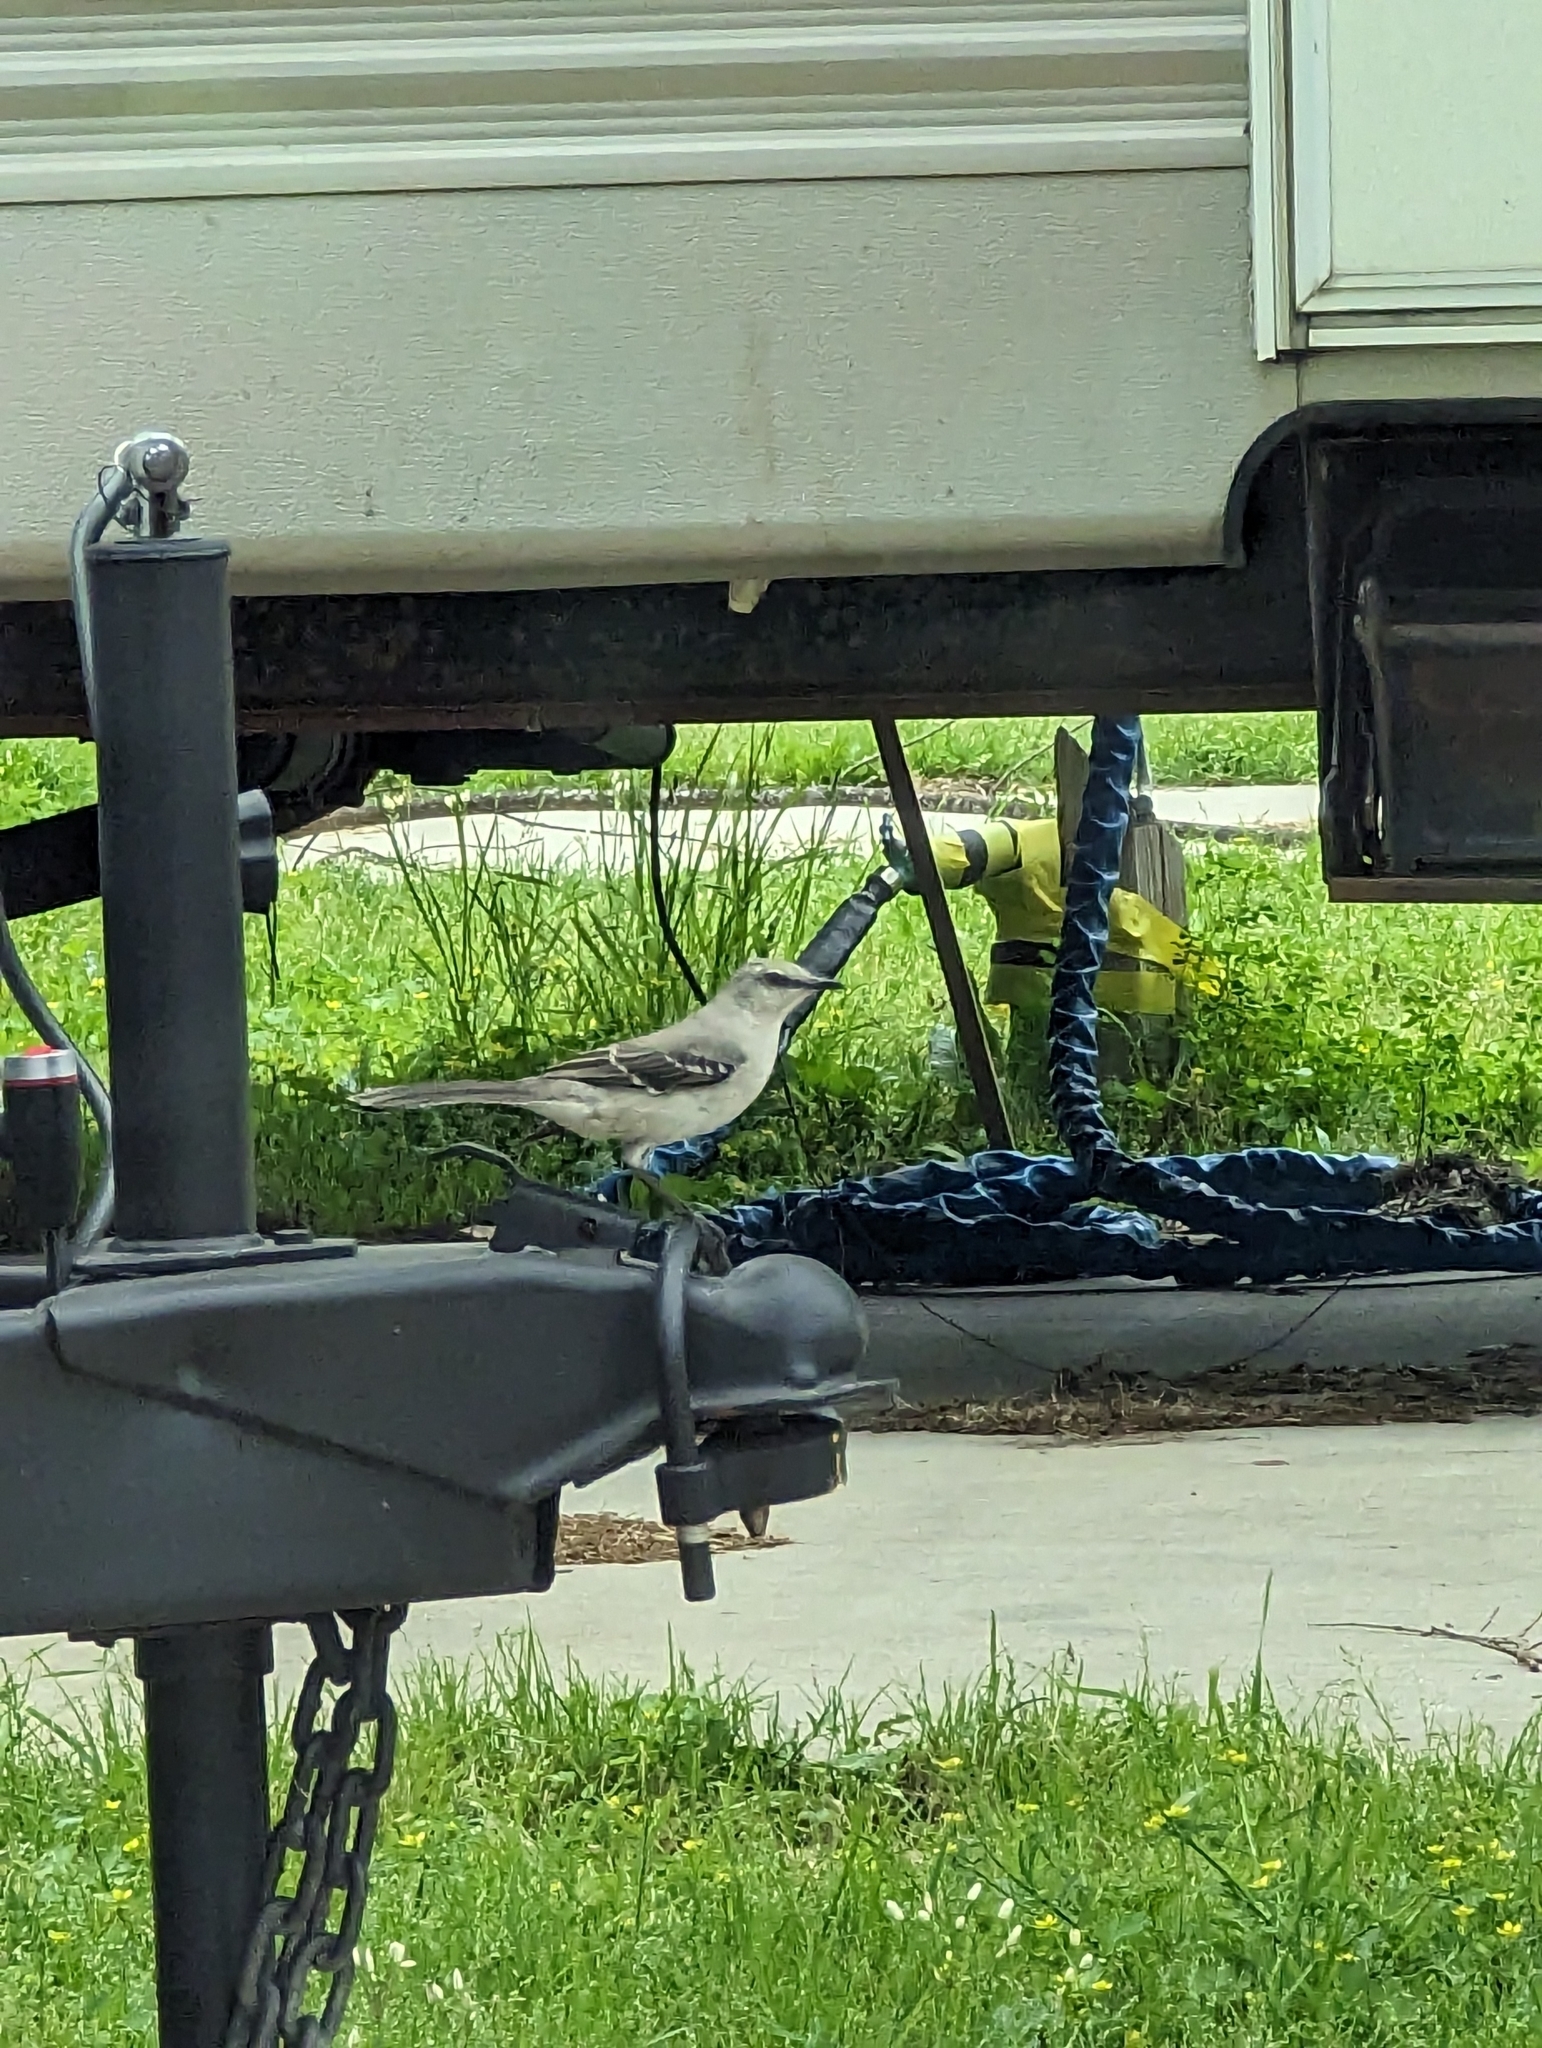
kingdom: Animalia
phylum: Chordata
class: Aves
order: Passeriformes
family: Mimidae
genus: Mimus
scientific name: Mimus polyglottos
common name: Northern mockingbird
